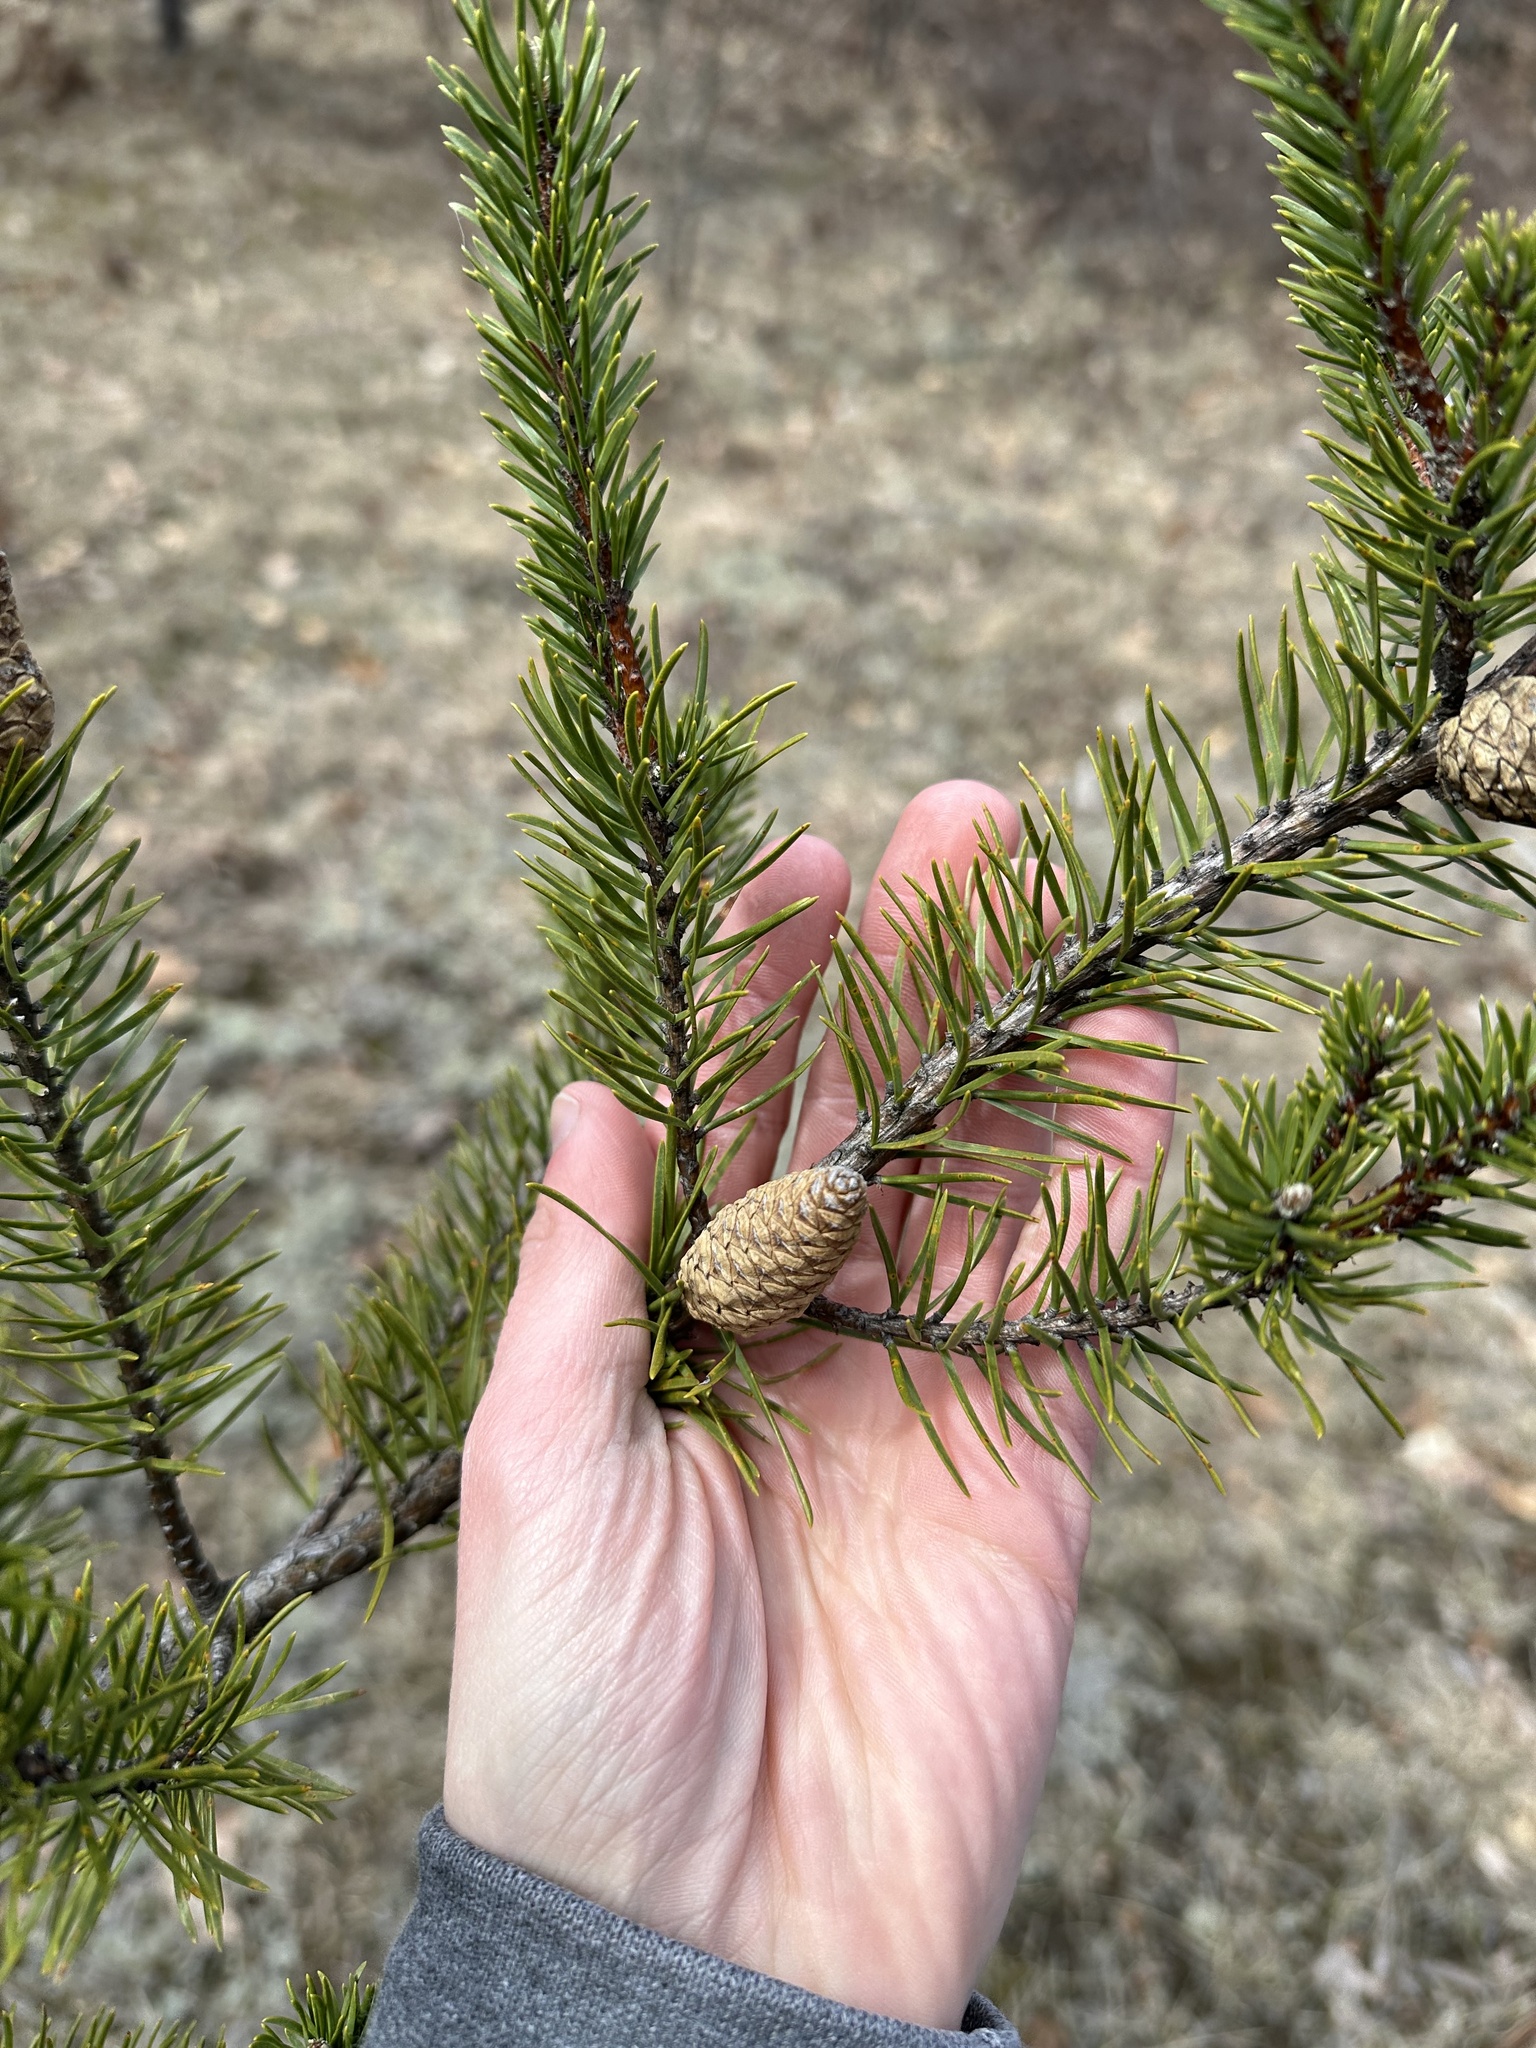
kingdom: Plantae
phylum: Tracheophyta
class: Pinopsida
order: Pinales
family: Pinaceae
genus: Pinus
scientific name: Pinus banksiana
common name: Jack pine
